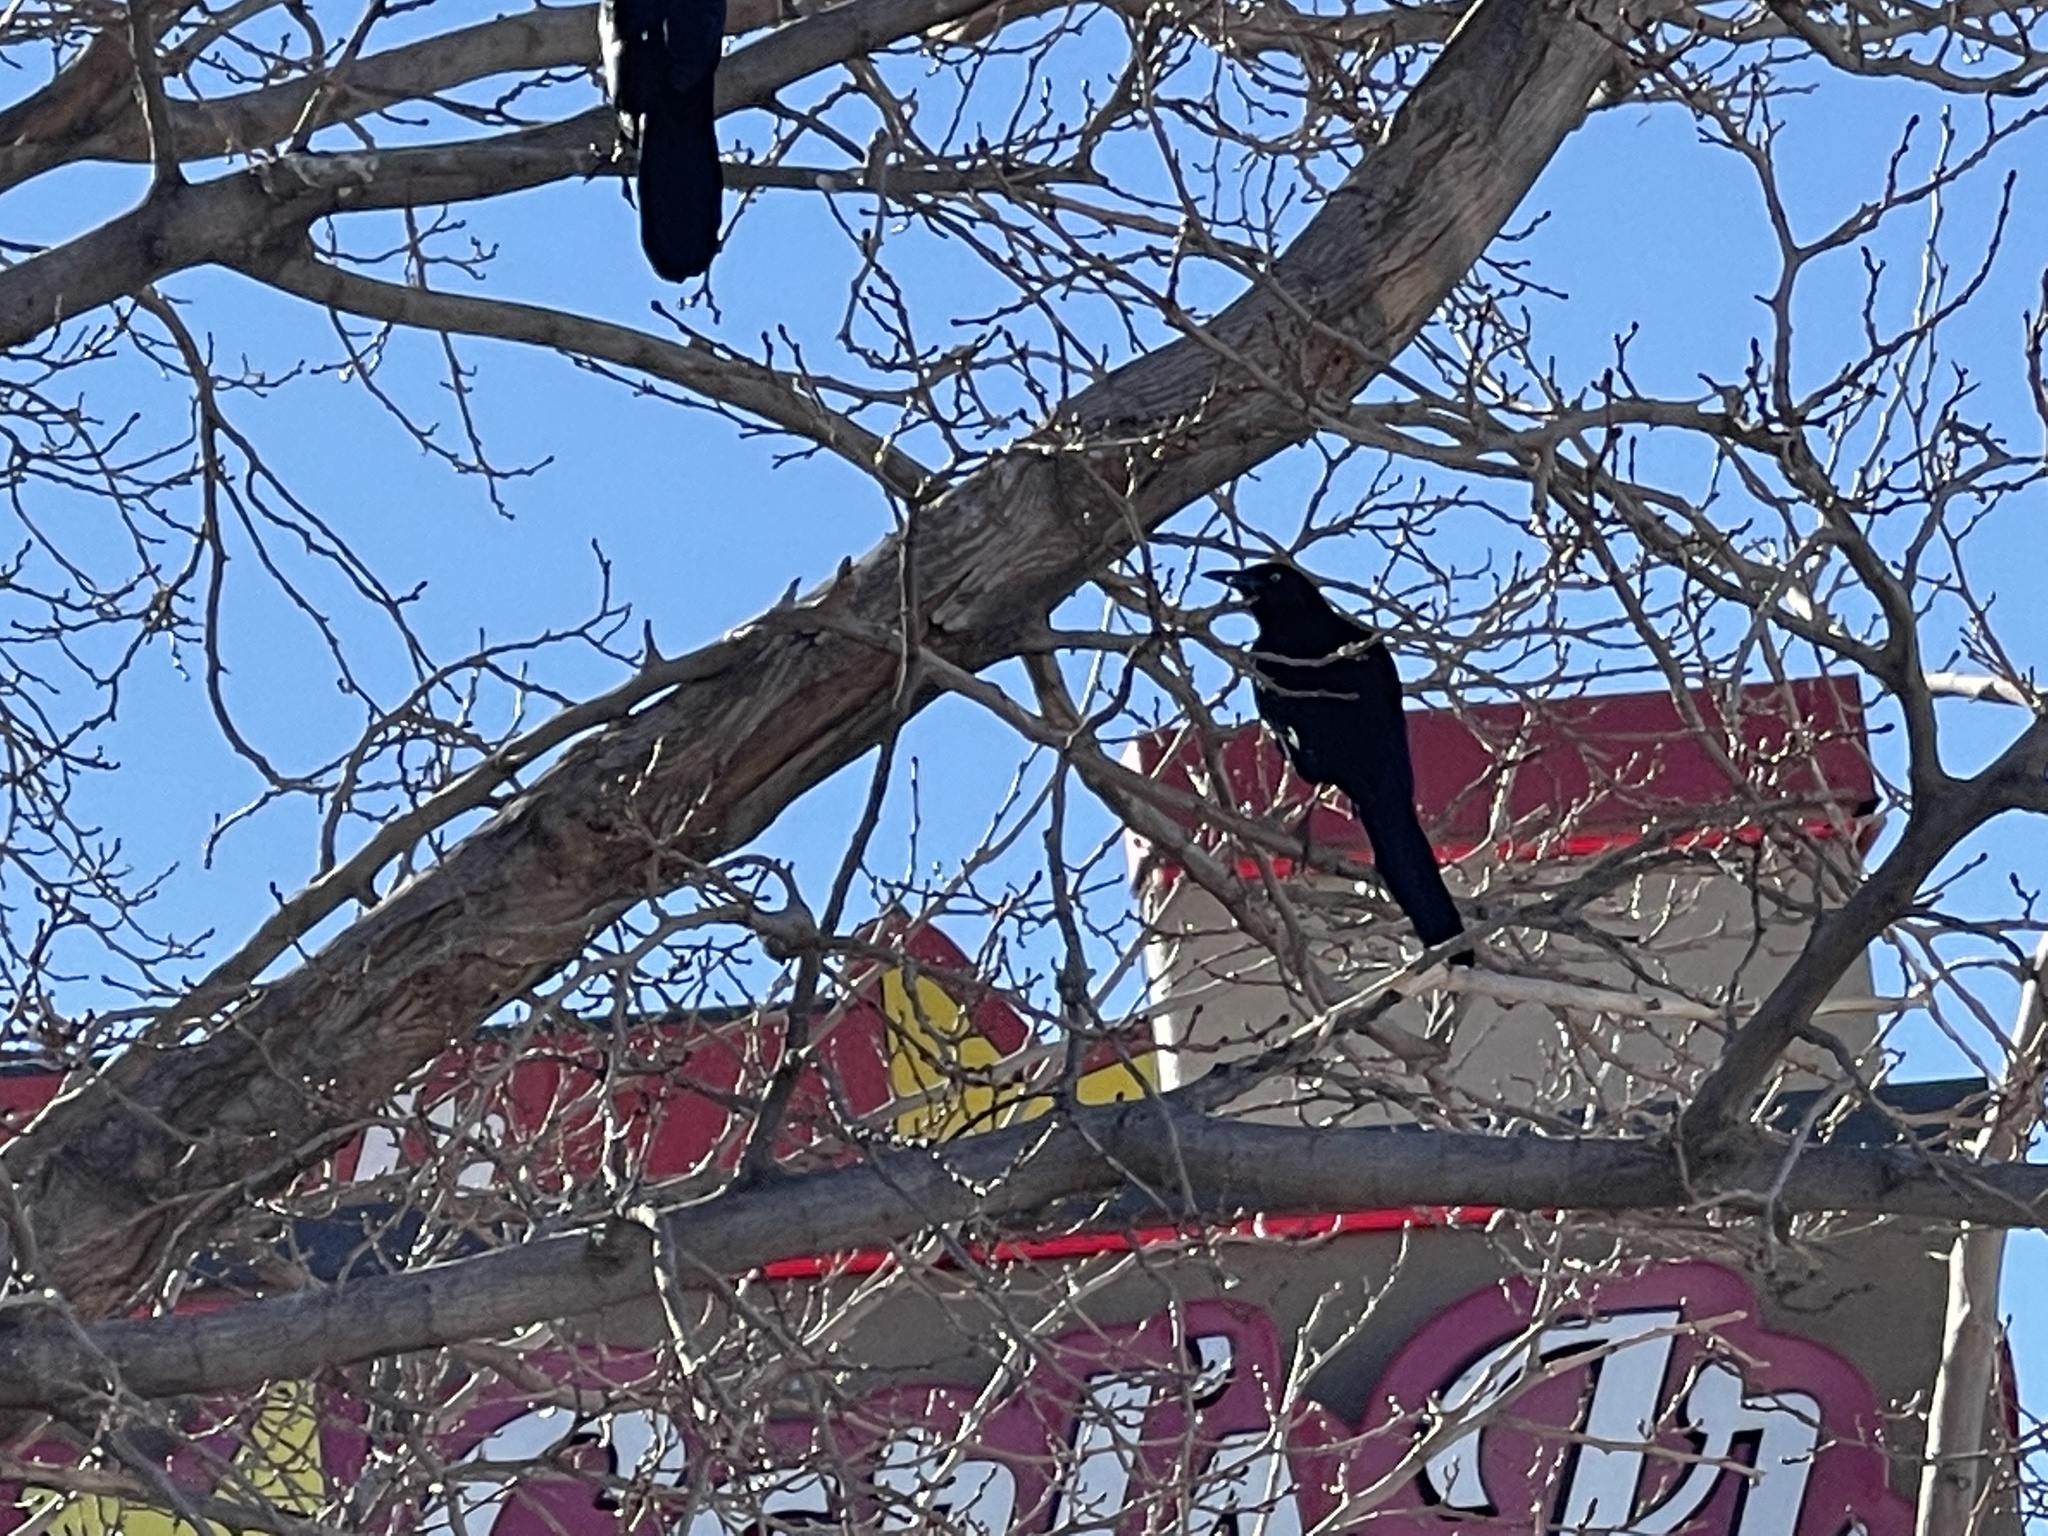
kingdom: Animalia
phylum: Chordata
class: Aves
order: Passeriformes
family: Icteridae
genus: Quiscalus
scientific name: Quiscalus mexicanus
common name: Great-tailed grackle
